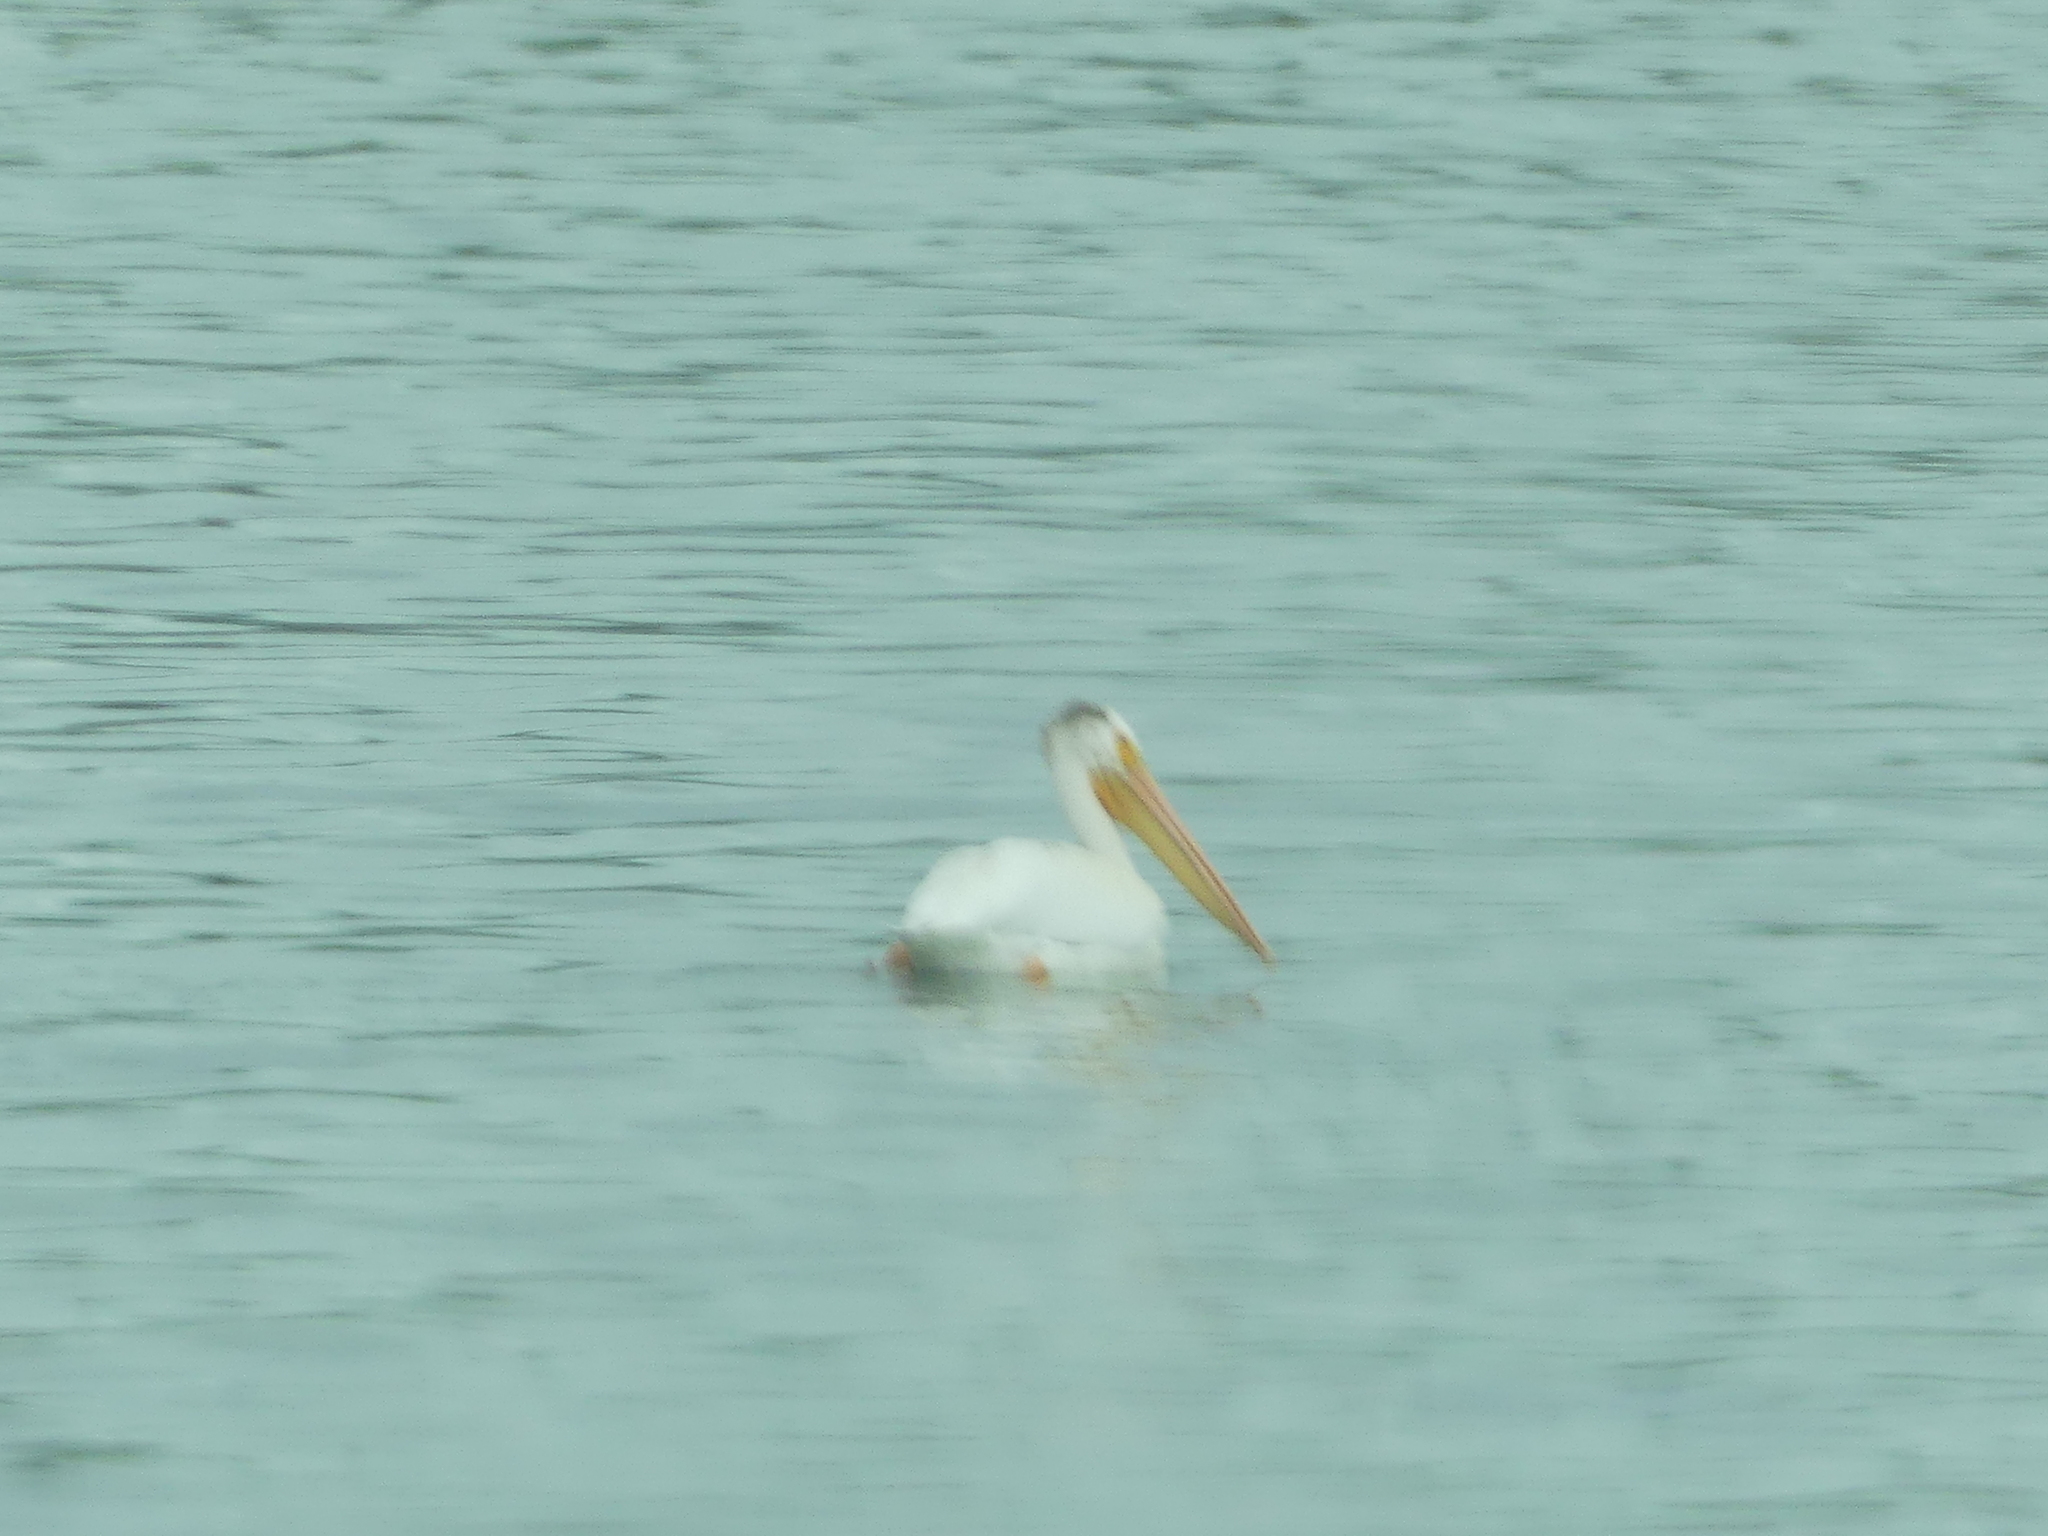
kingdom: Animalia
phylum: Chordata
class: Aves
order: Pelecaniformes
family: Pelecanidae
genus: Pelecanus
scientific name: Pelecanus erythrorhynchos
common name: American white pelican
